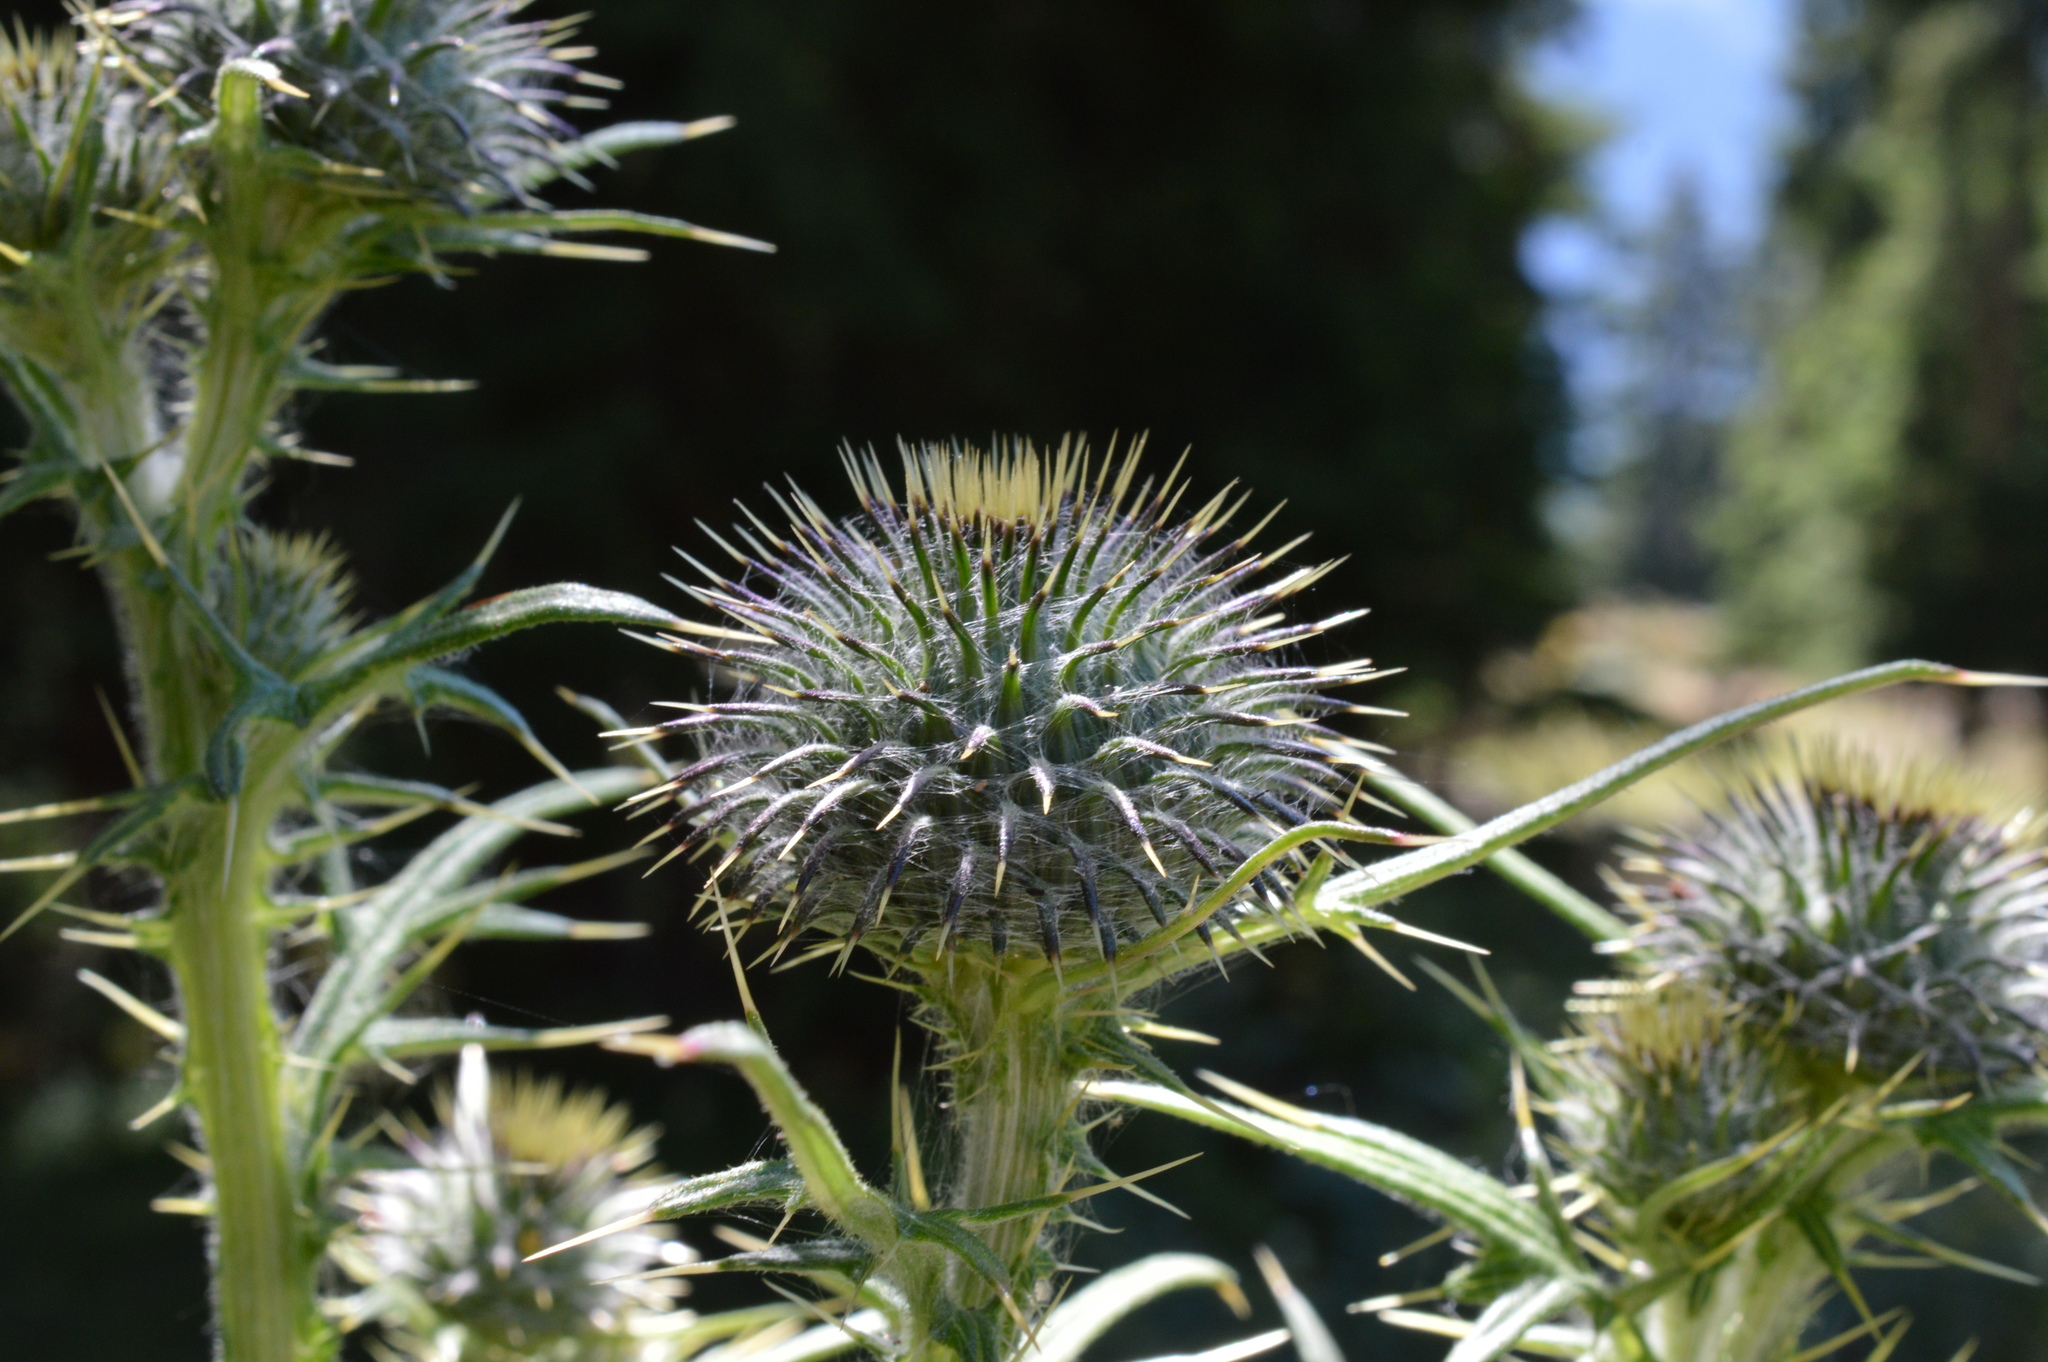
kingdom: Plantae
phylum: Tracheophyta
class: Magnoliopsida
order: Asterales
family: Asteraceae
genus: Cirsium
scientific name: Cirsium vulgare
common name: Bull thistle
